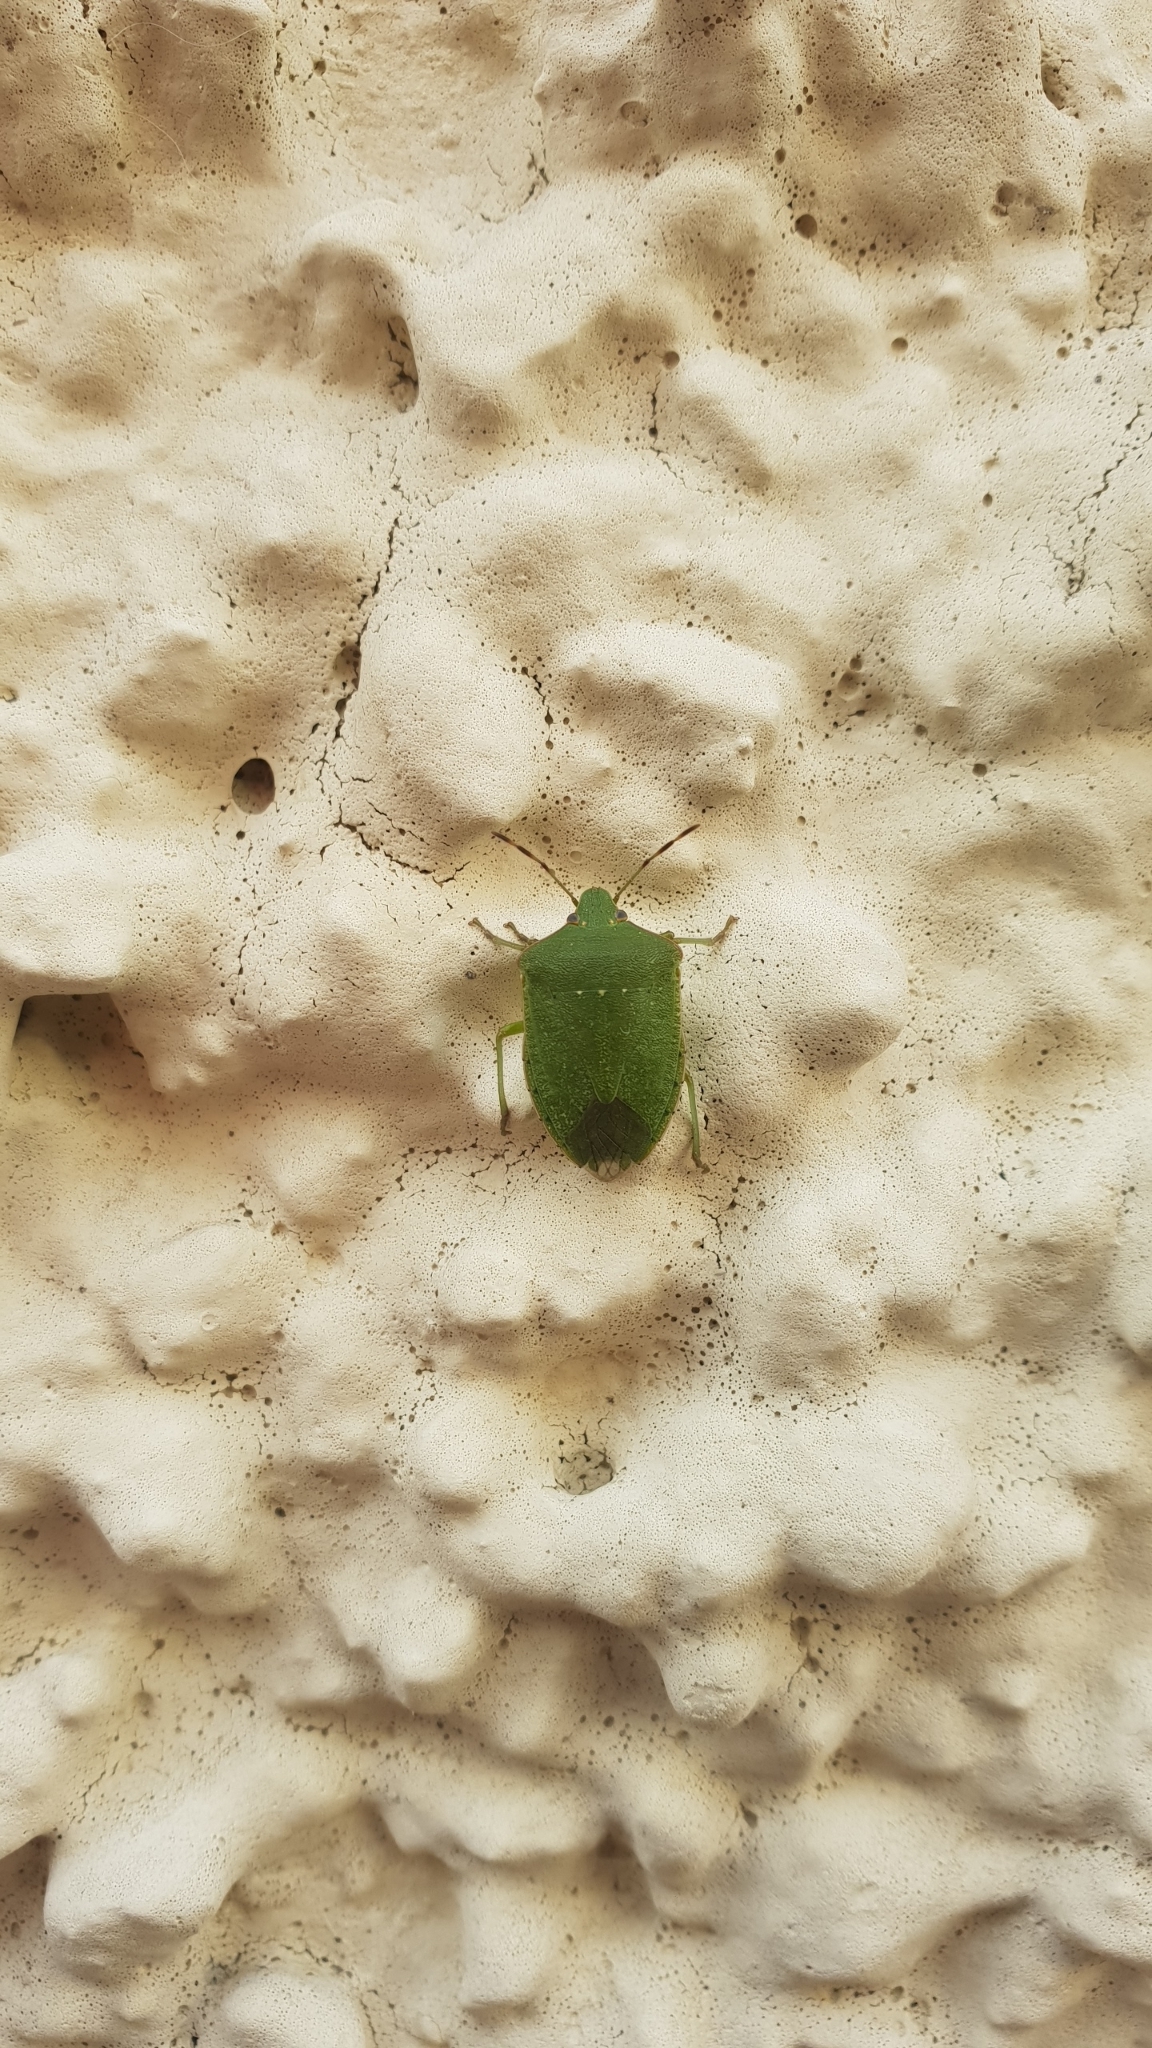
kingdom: Animalia
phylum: Arthropoda
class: Insecta
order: Hemiptera
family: Pentatomidae
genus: Nezara
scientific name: Nezara viridula
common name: Southern green stink bug
